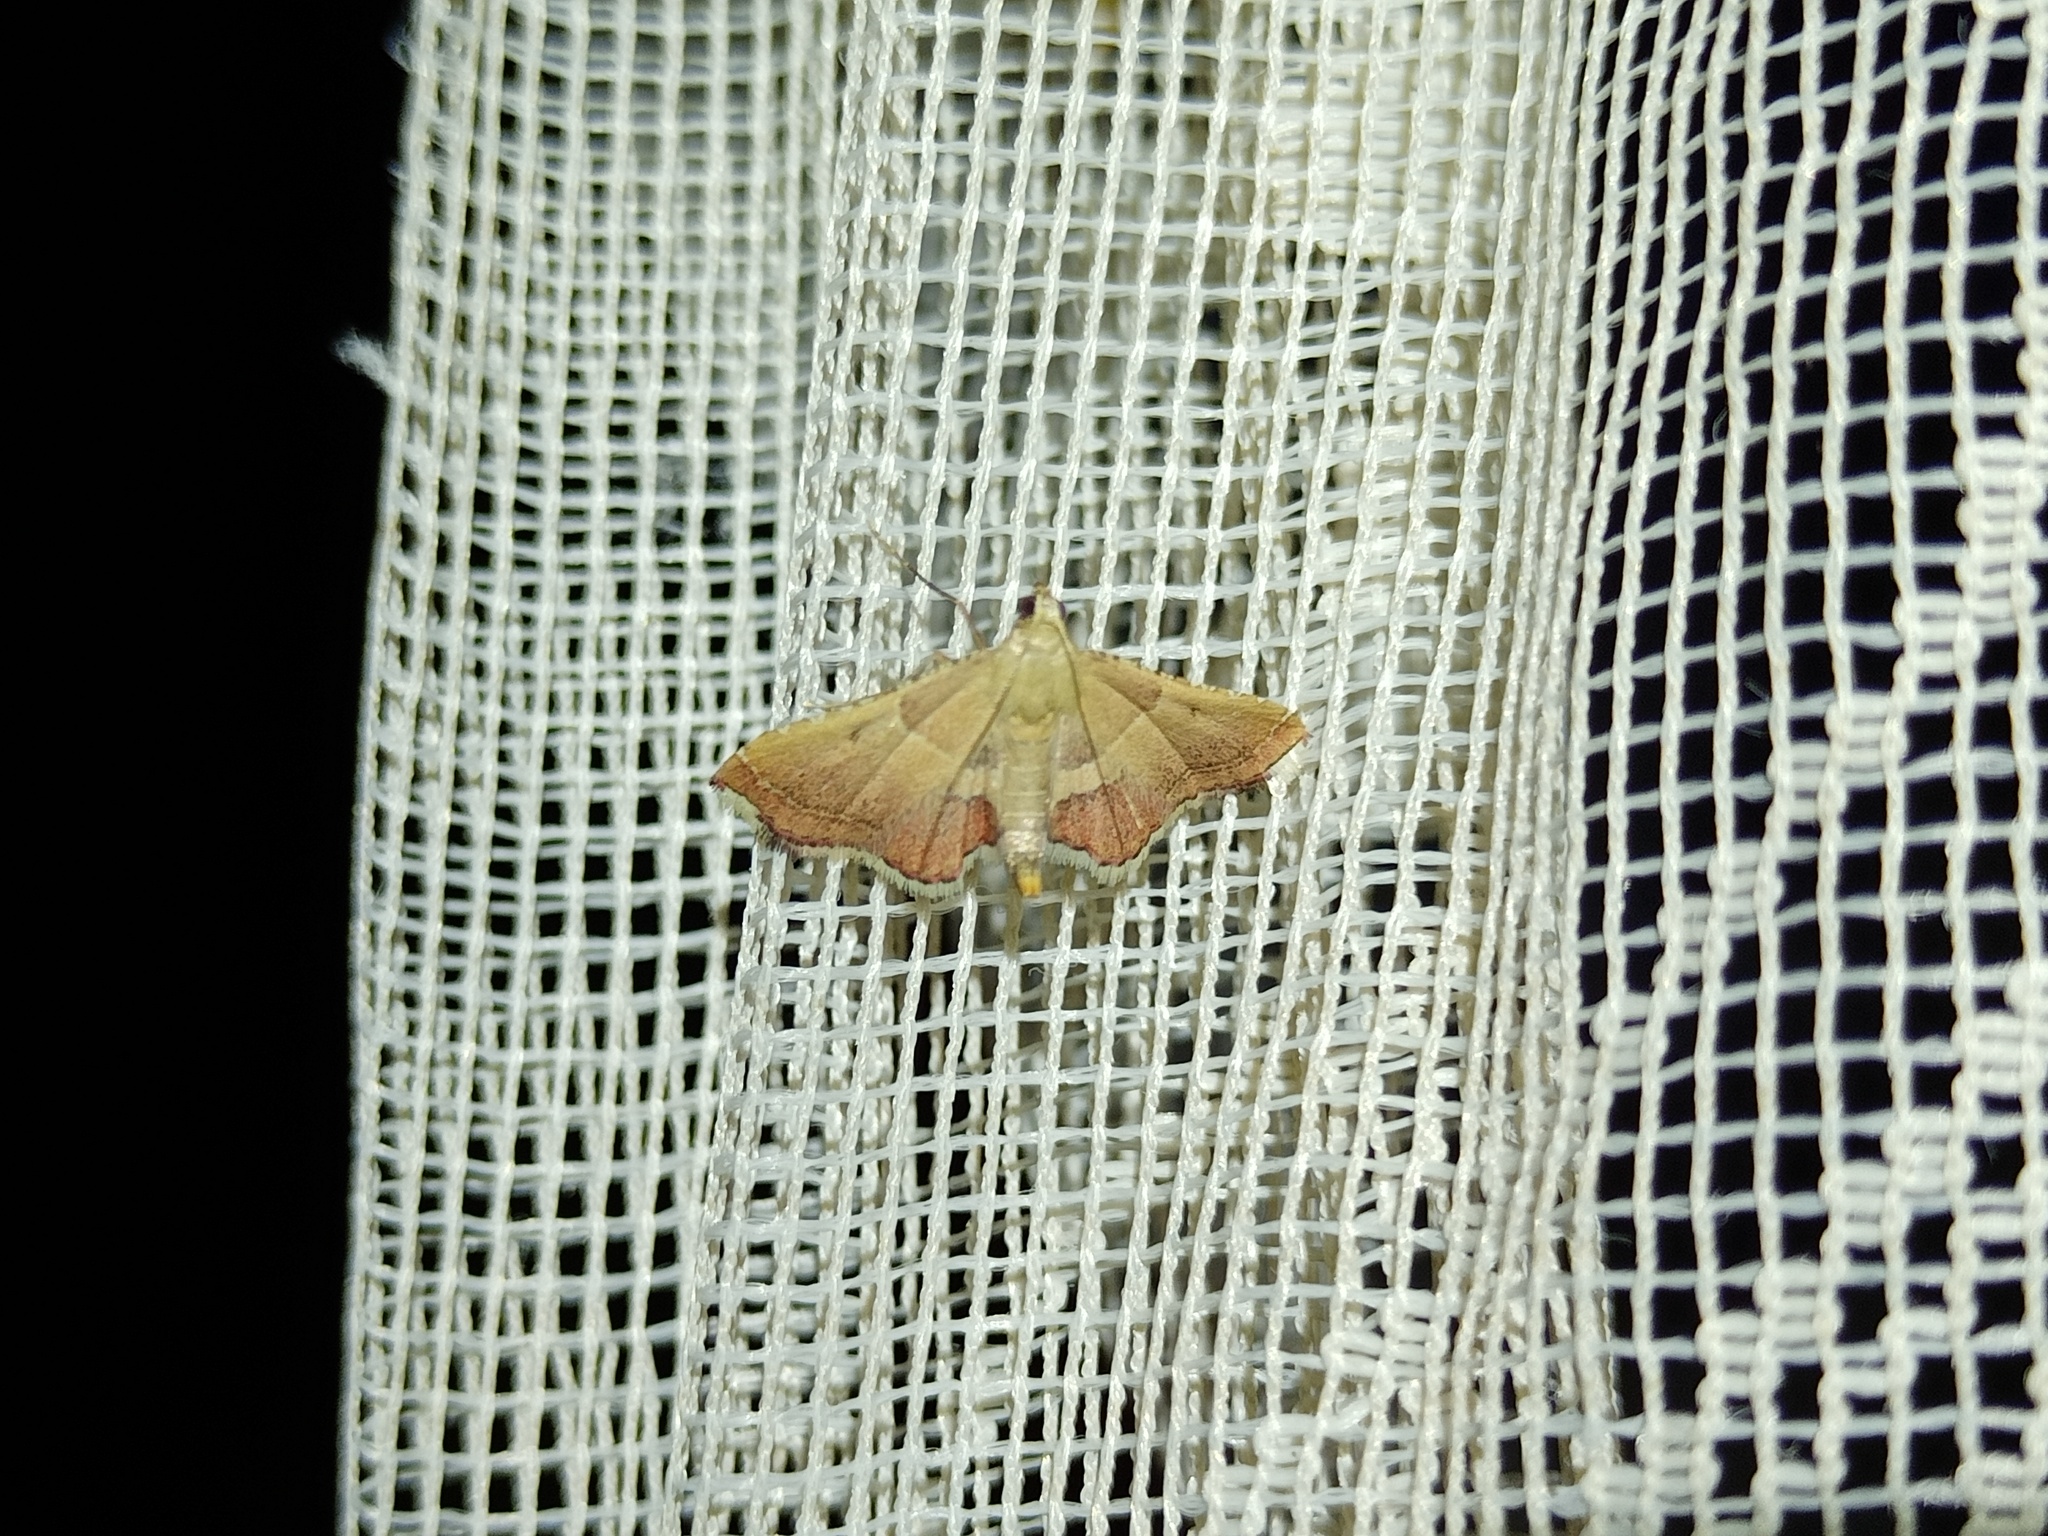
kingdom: Animalia
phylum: Arthropoda
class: Insecta
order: Lepidoptera
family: Pyralidae
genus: Endotricha
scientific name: Endotricha flammealis
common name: Rosy tabby
